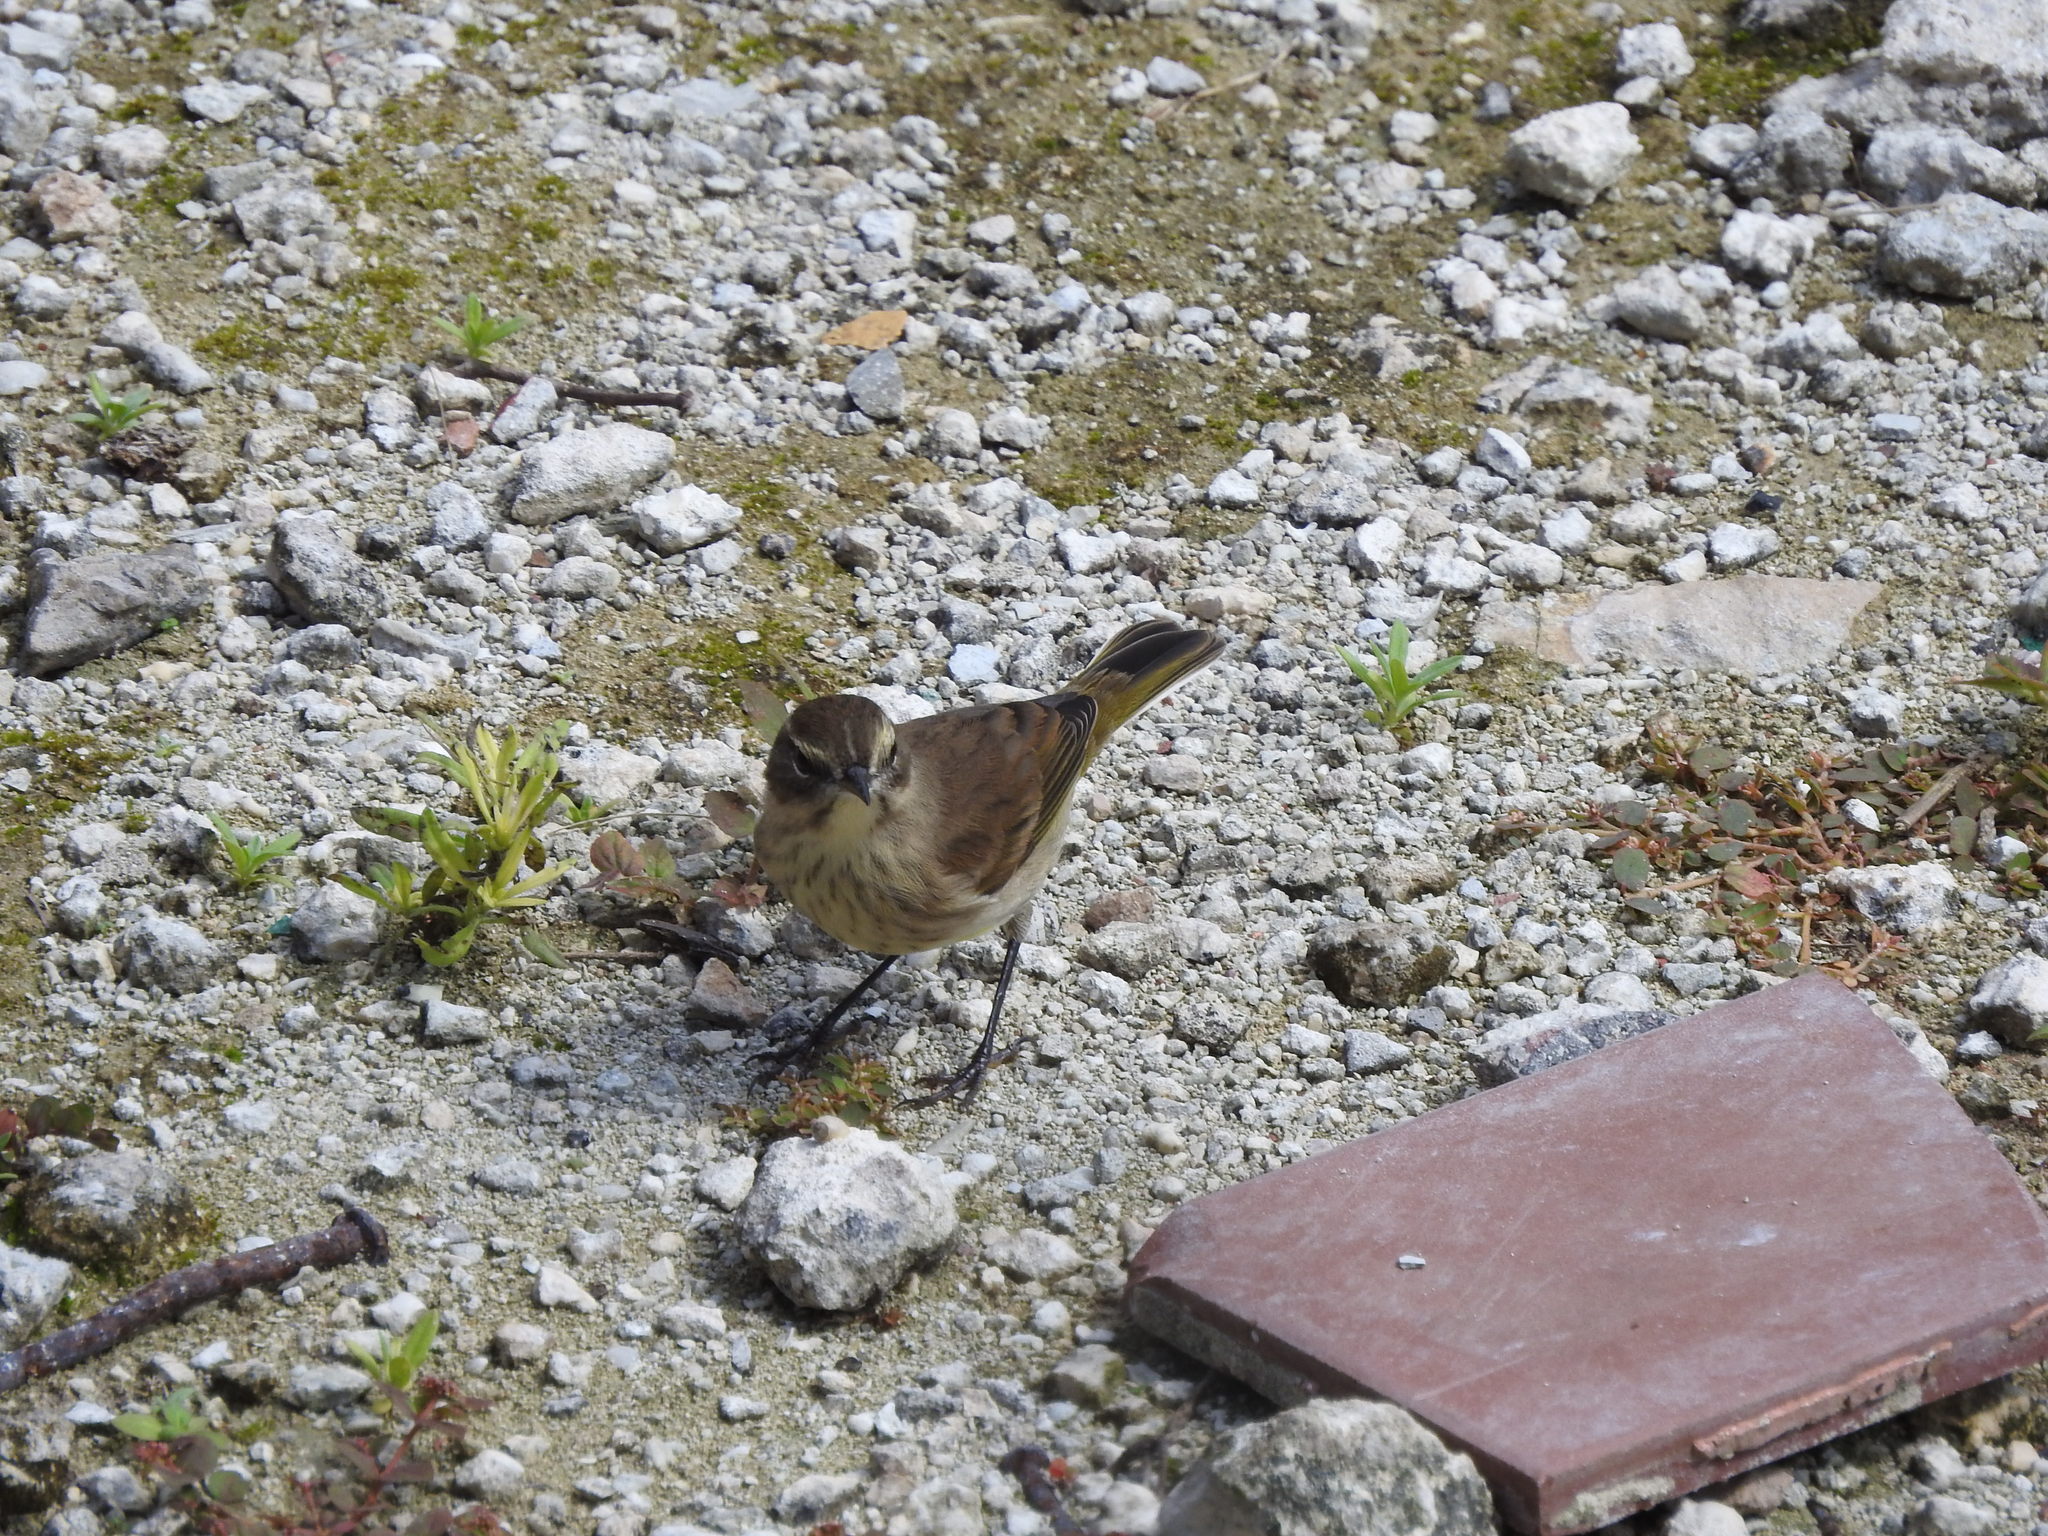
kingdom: Animalia
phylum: Chordata
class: Aves
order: Passeriformes
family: Parulidae
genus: Setophaga
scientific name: Setophaga palmarum
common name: Palm warbler
